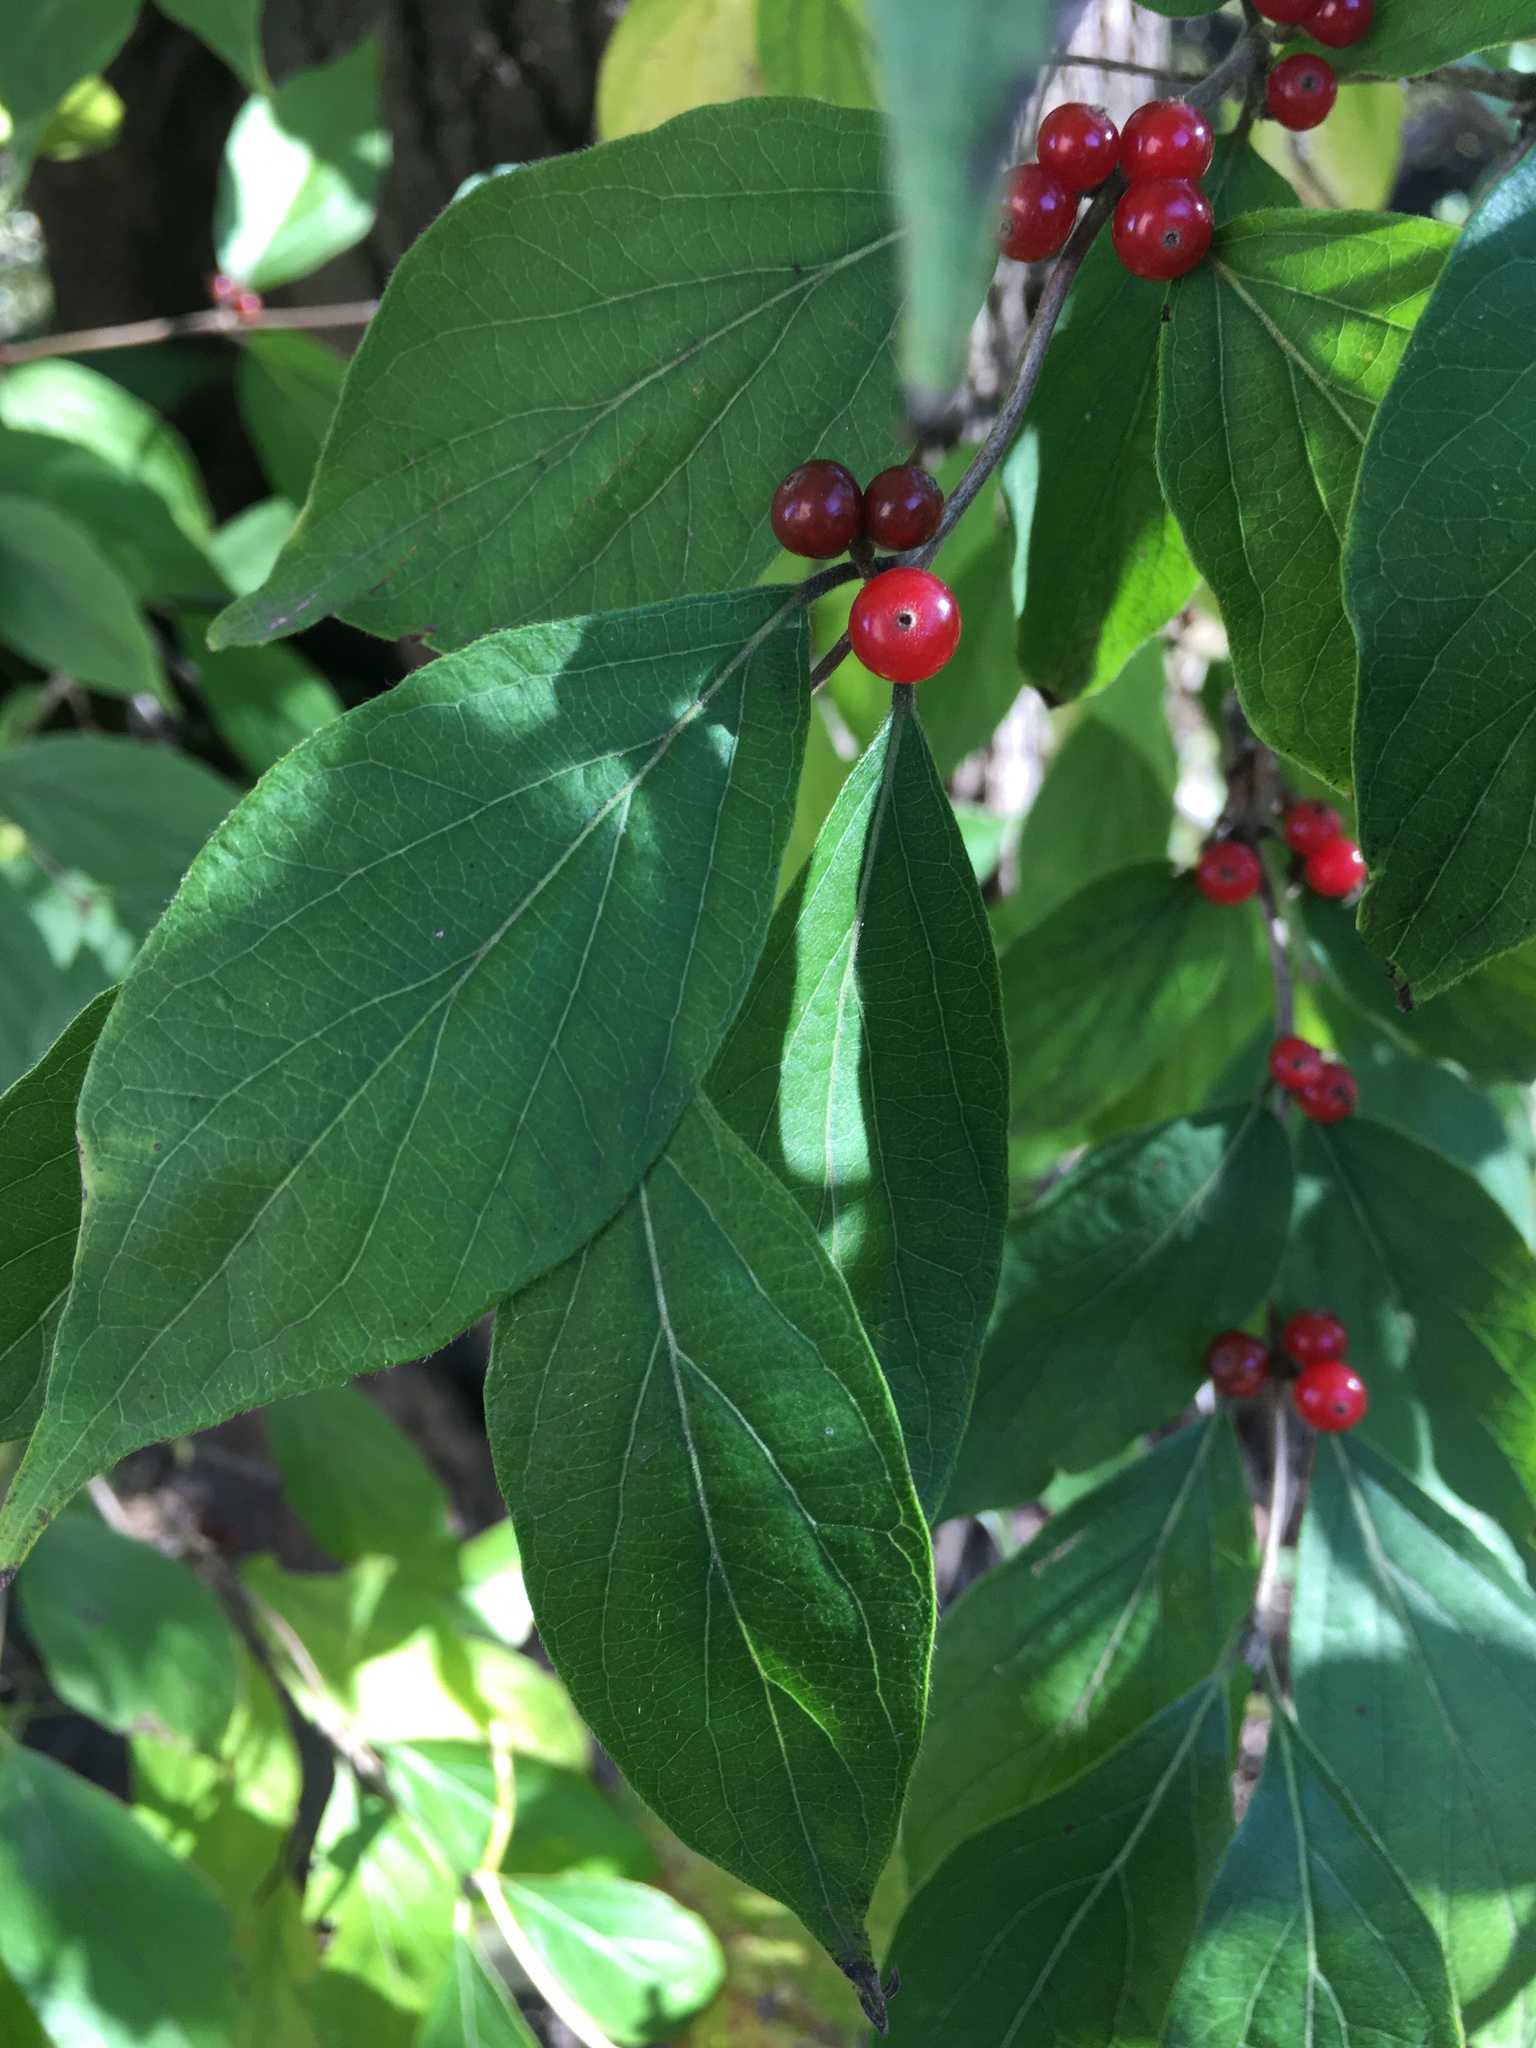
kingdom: Plantae
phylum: Tracheophyta
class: Magnoliopsida
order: Dipsacales
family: Caprifoliaceae
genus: Lonicera
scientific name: Lonicera maackii
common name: Amur honeysuckle
